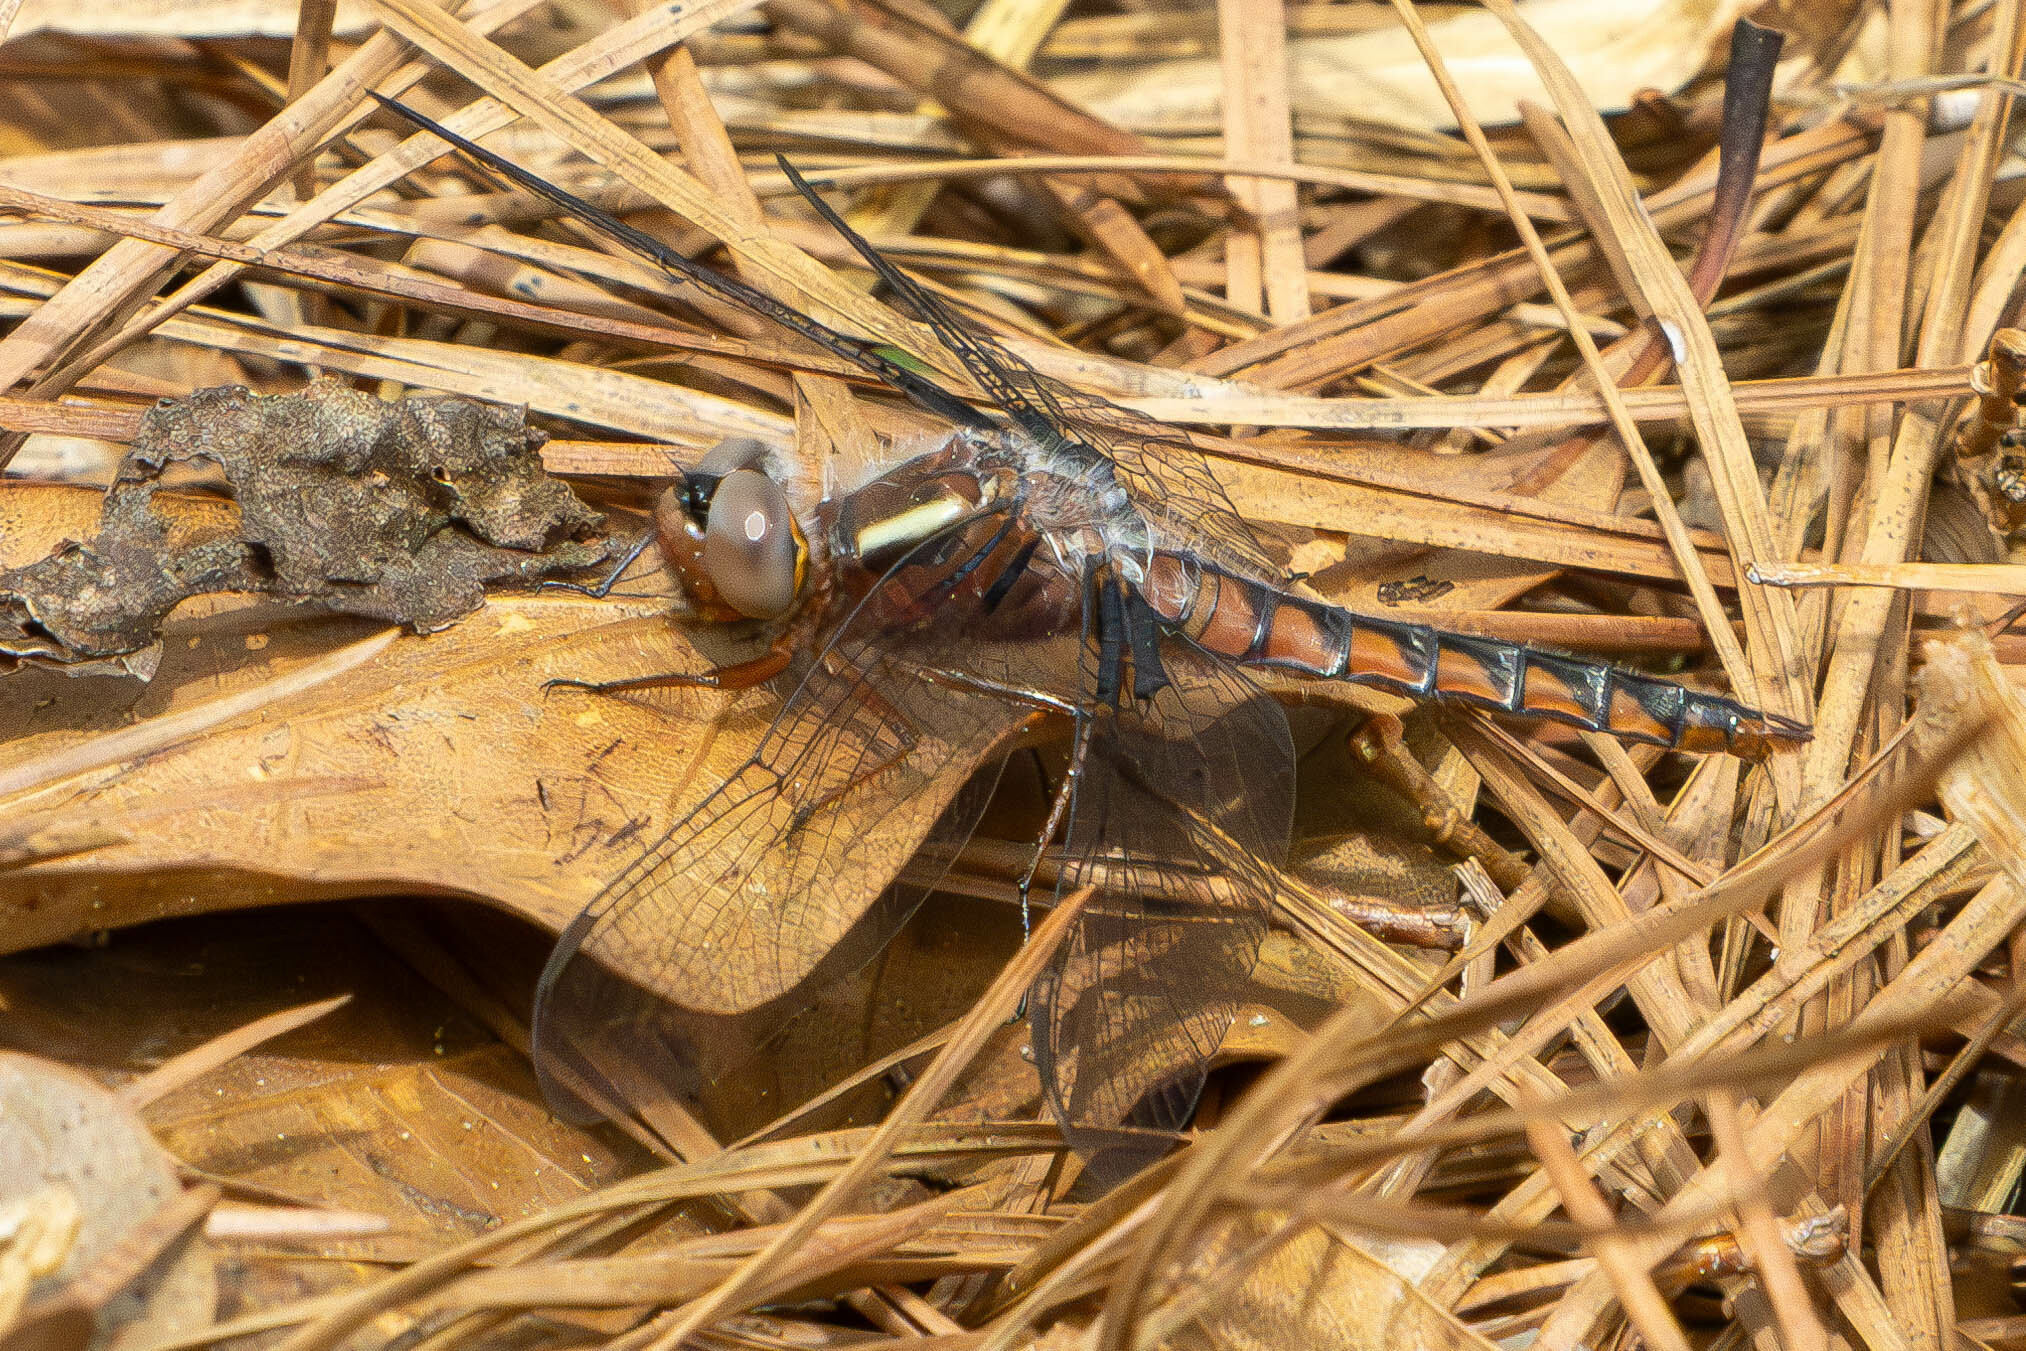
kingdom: Animalia
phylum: Arthropoda
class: Insecta
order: Odonata
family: Libellulidae
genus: Ladona
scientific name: Ladona deplanata
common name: Blue corporal
